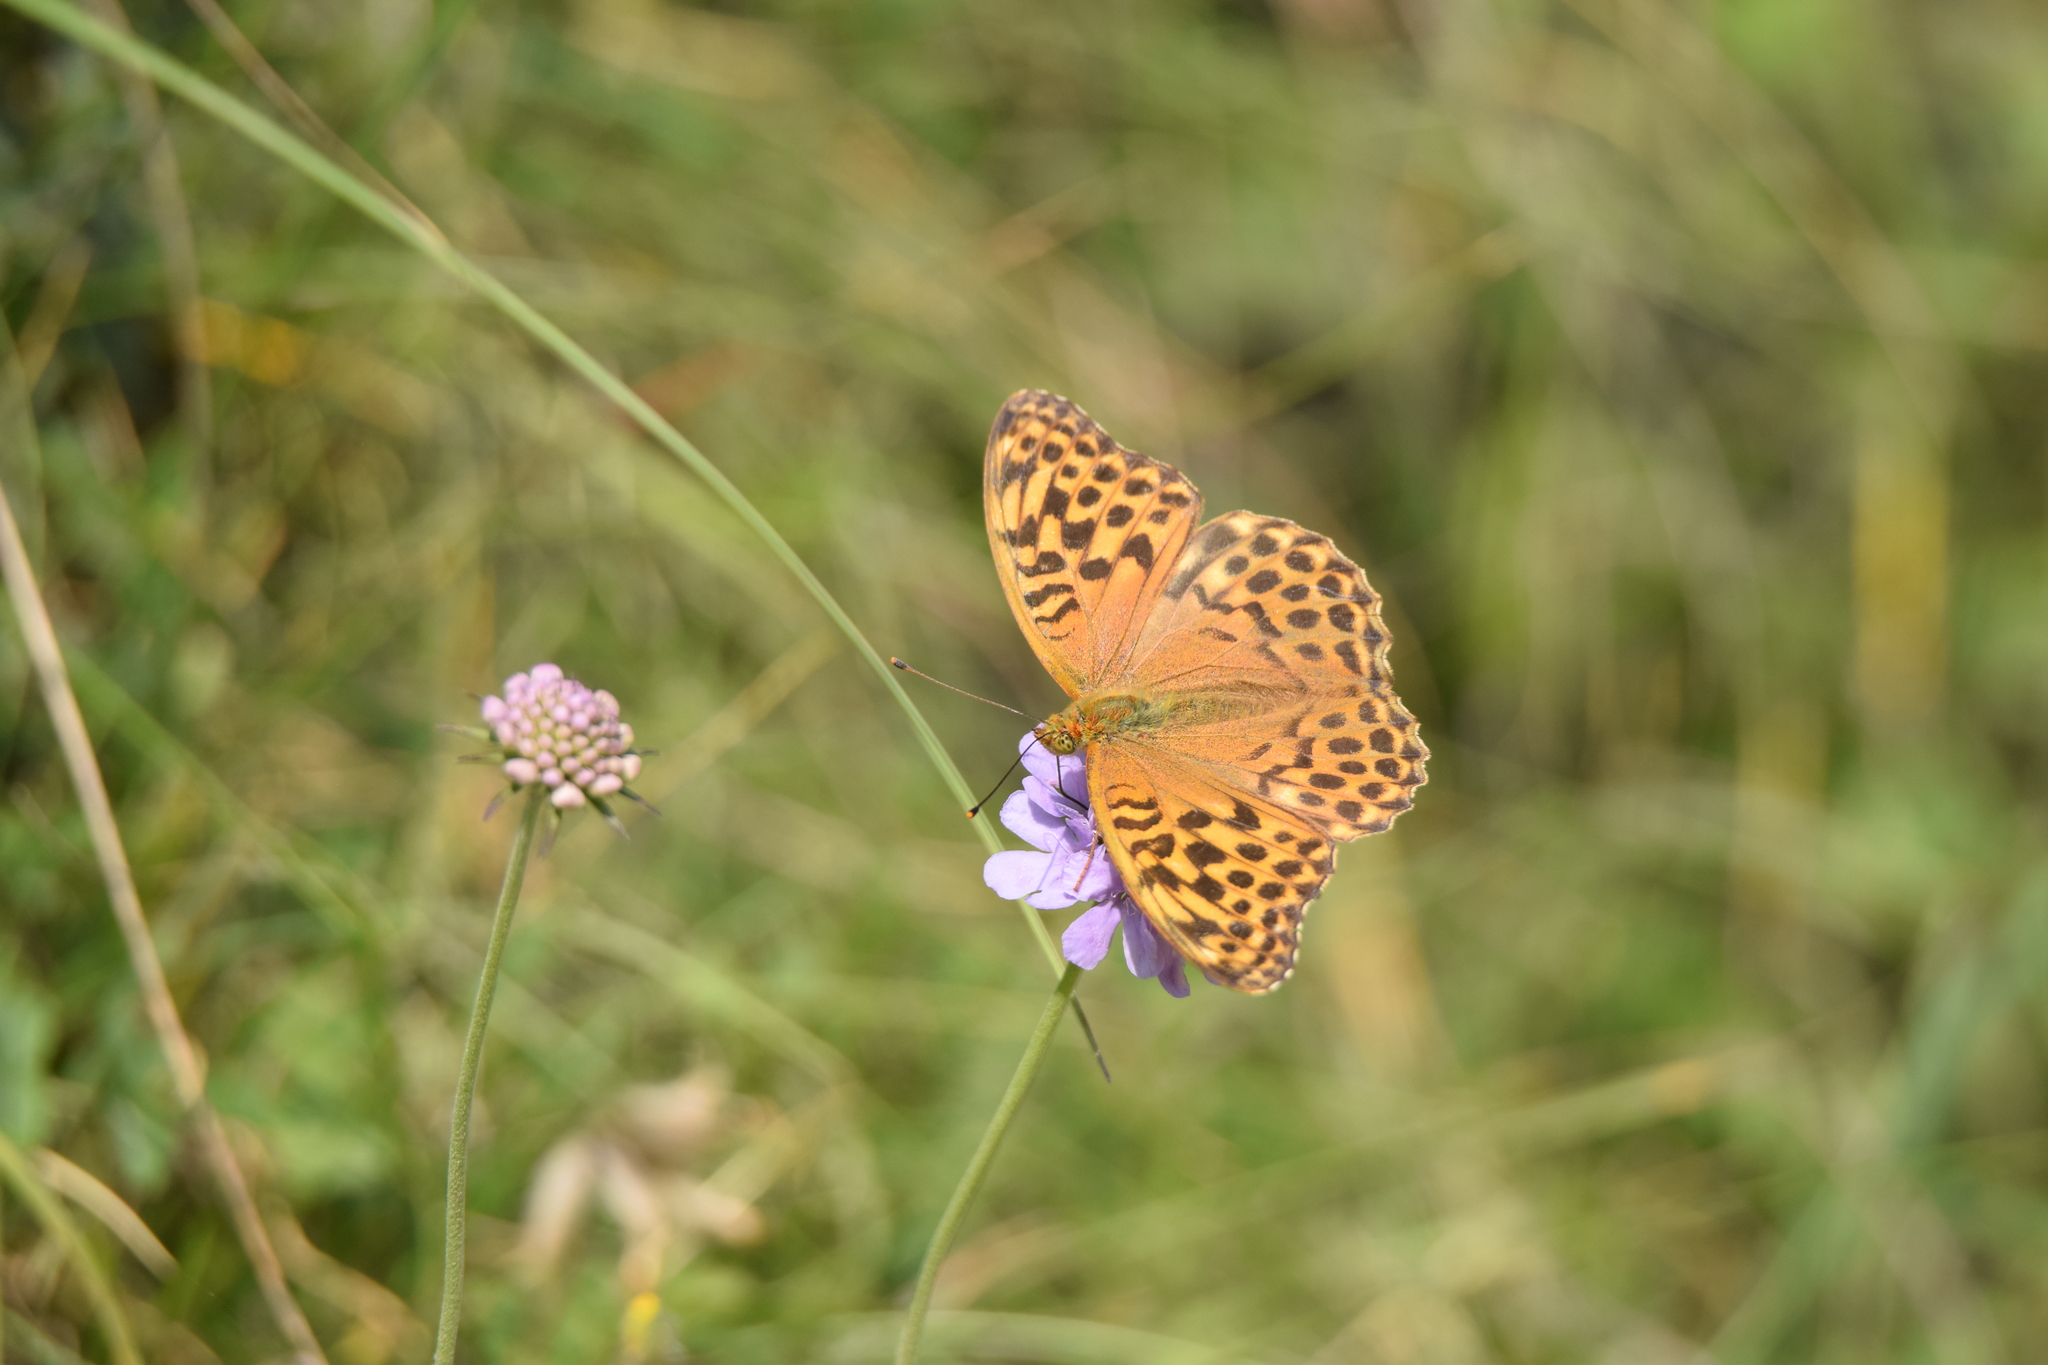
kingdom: Animalia
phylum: Arthropoda
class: Insecta
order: Lepidoptera
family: Nymphalidae
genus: Argynnis
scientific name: Argynnis paphia
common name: Silver-washed fritillary
